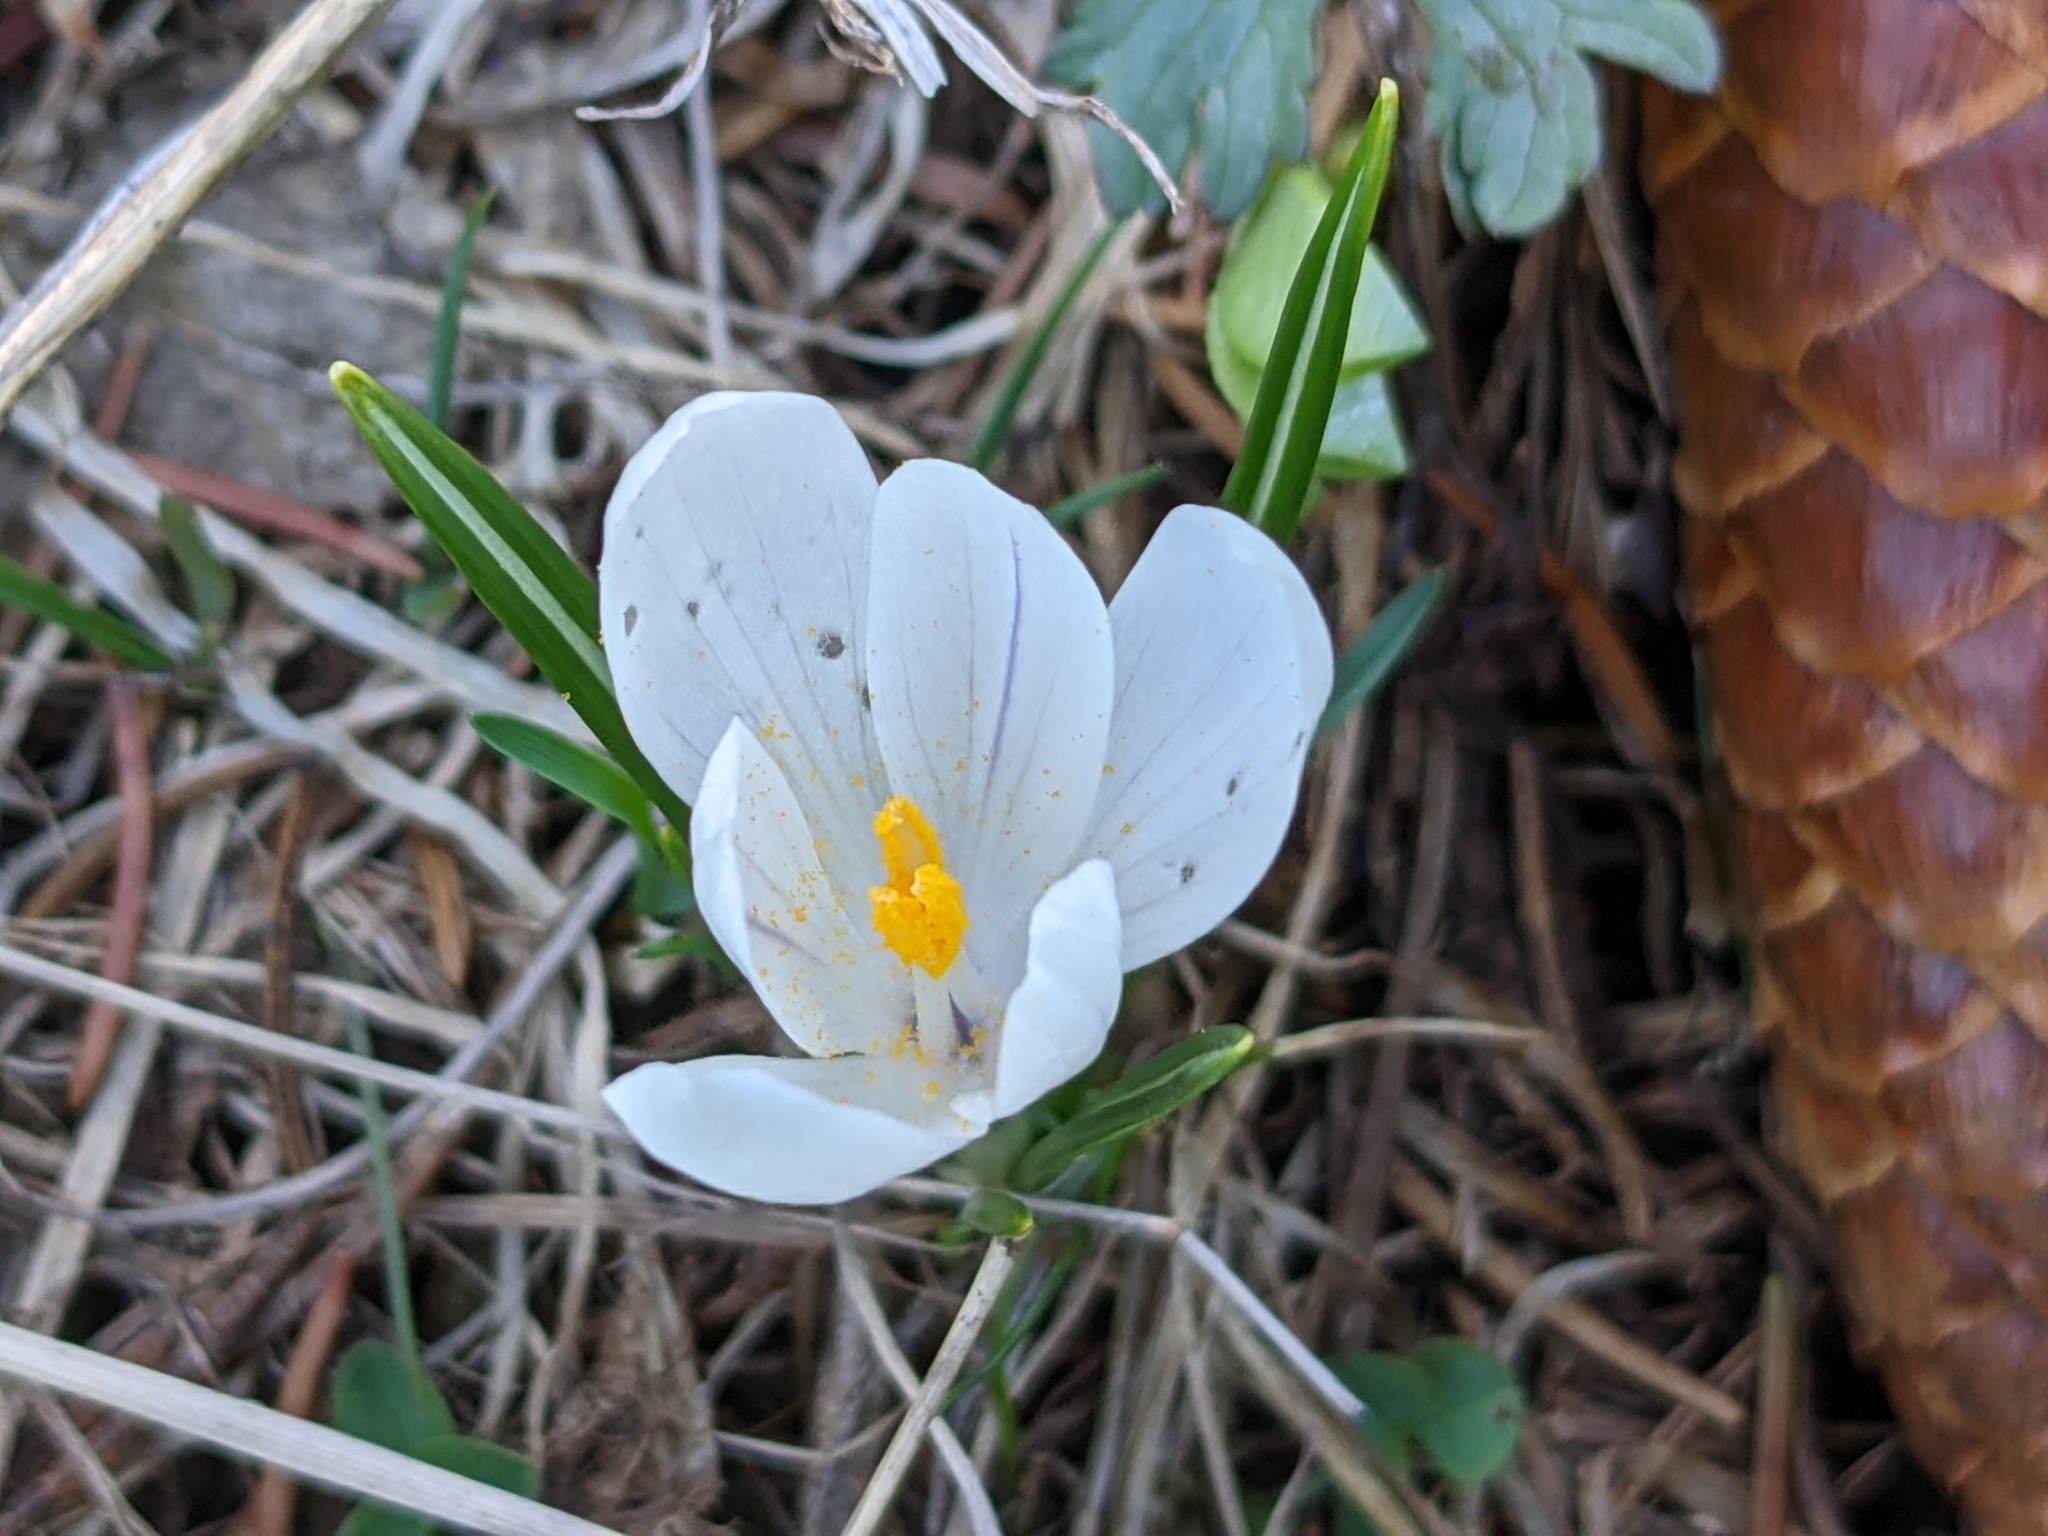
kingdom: Plantae
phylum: Tracheophyta
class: Liliopsida
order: Asparagales
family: Iridaceae
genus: Crocus
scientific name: Crocus vernus
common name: Spring crocus
